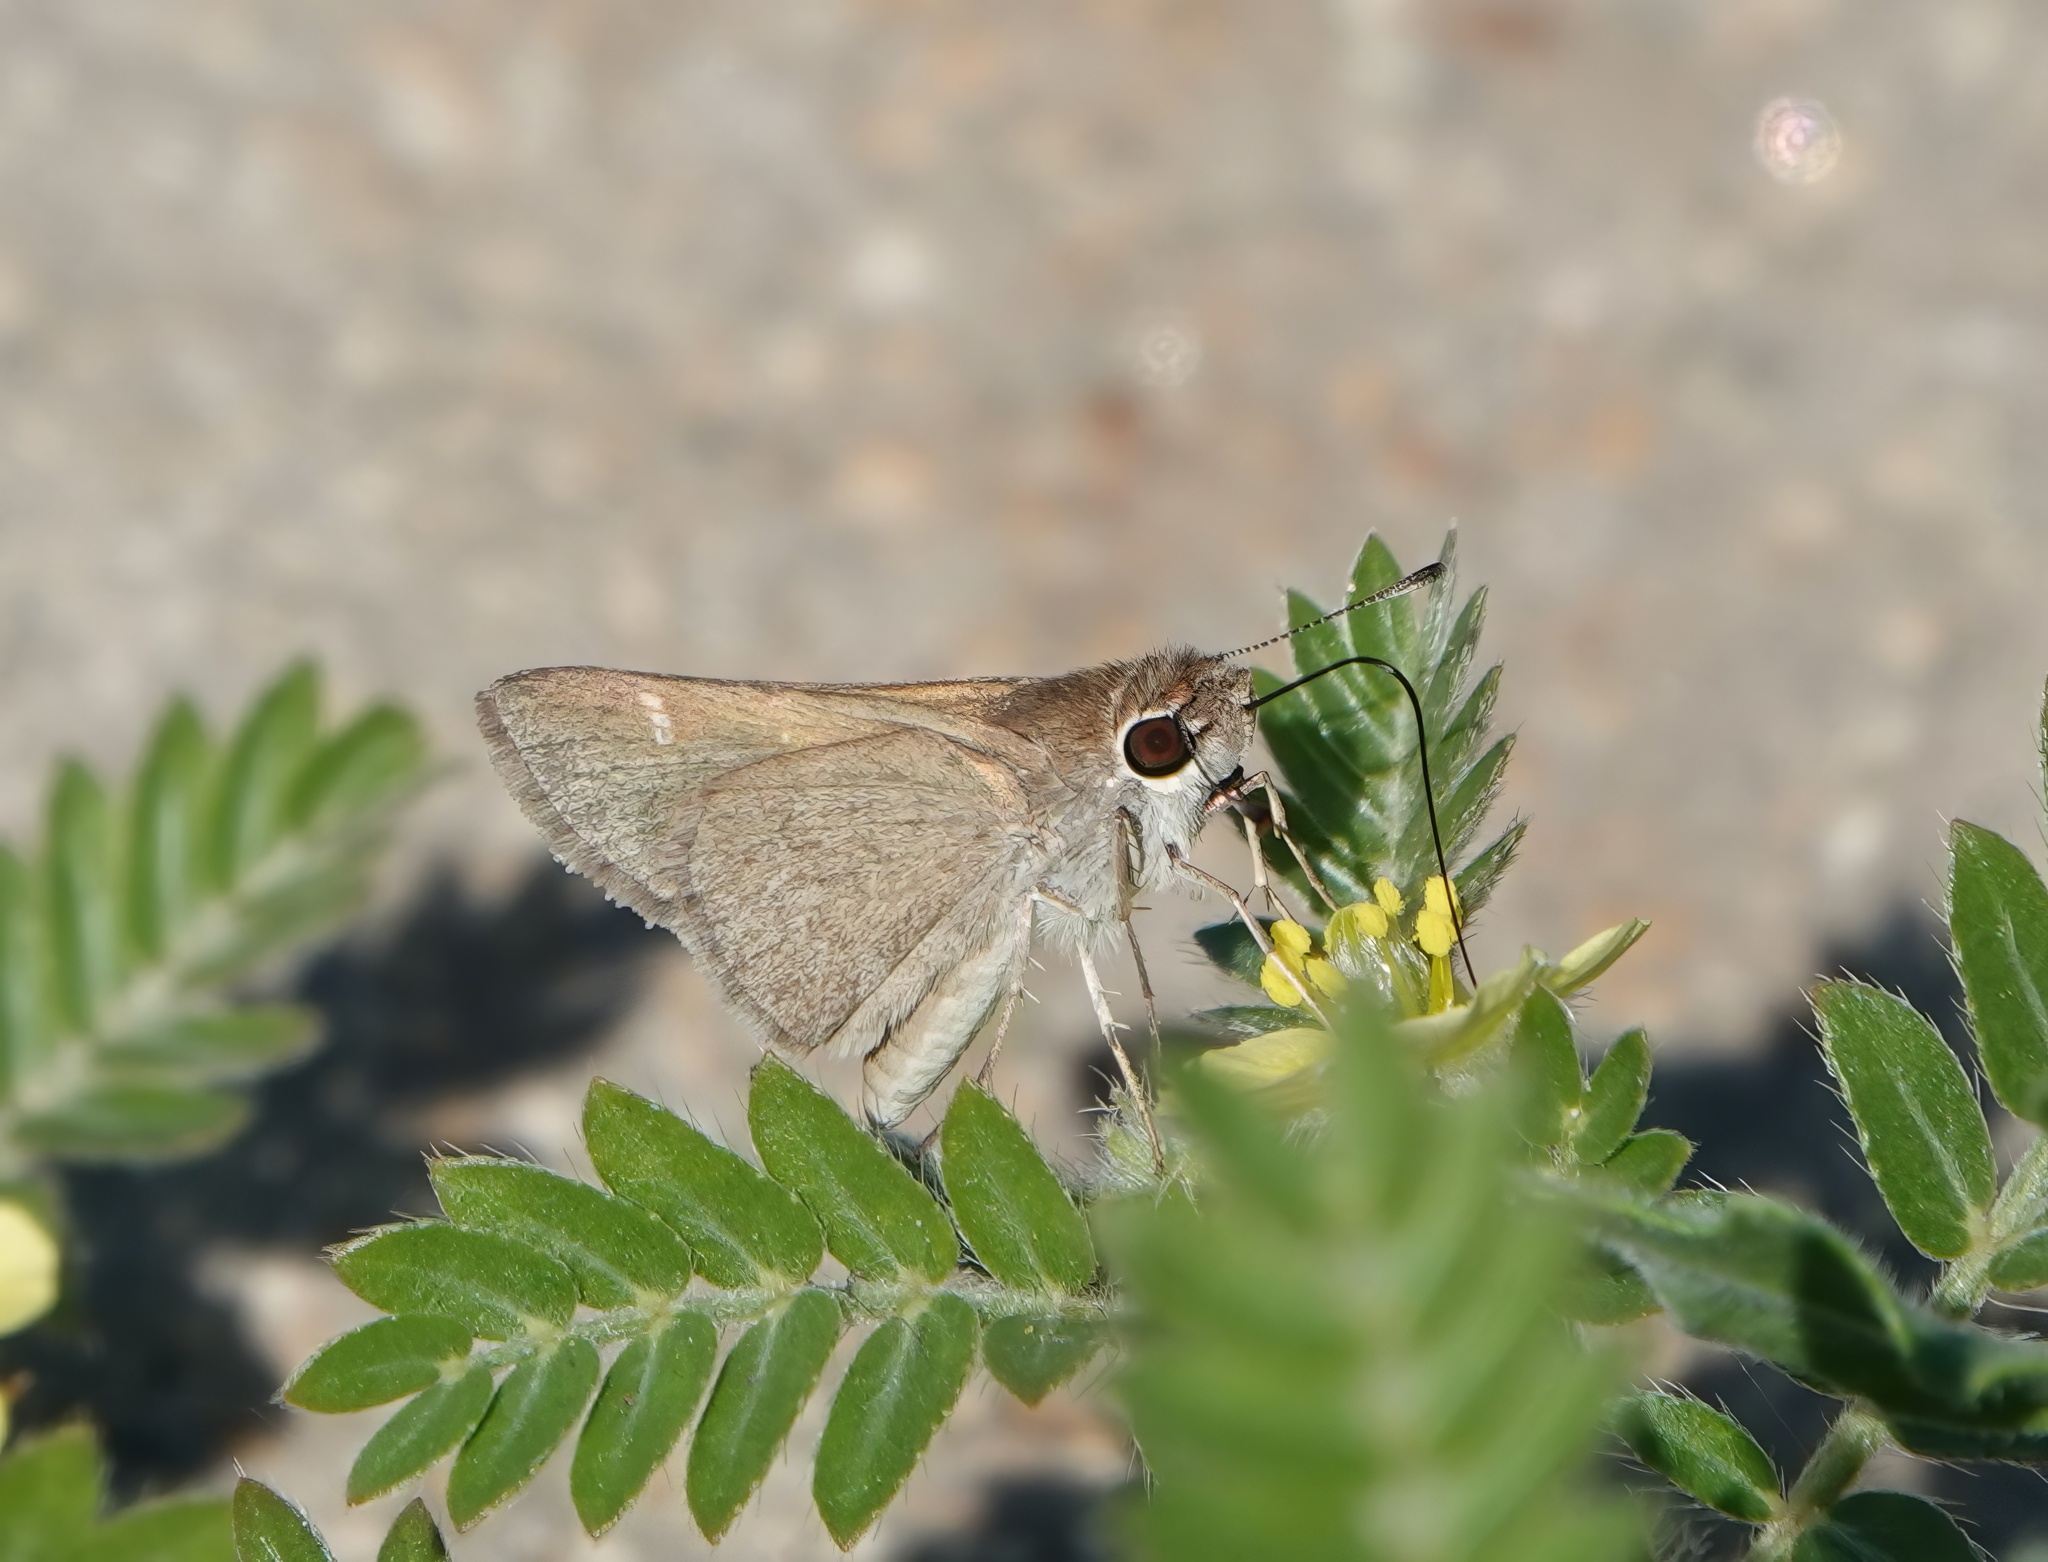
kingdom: Animalia
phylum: Arthropoda
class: Insecta
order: Lepidoptera
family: Hesperiidae
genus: Lerodea
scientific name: Lerodea eufala
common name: Eufala skipper
